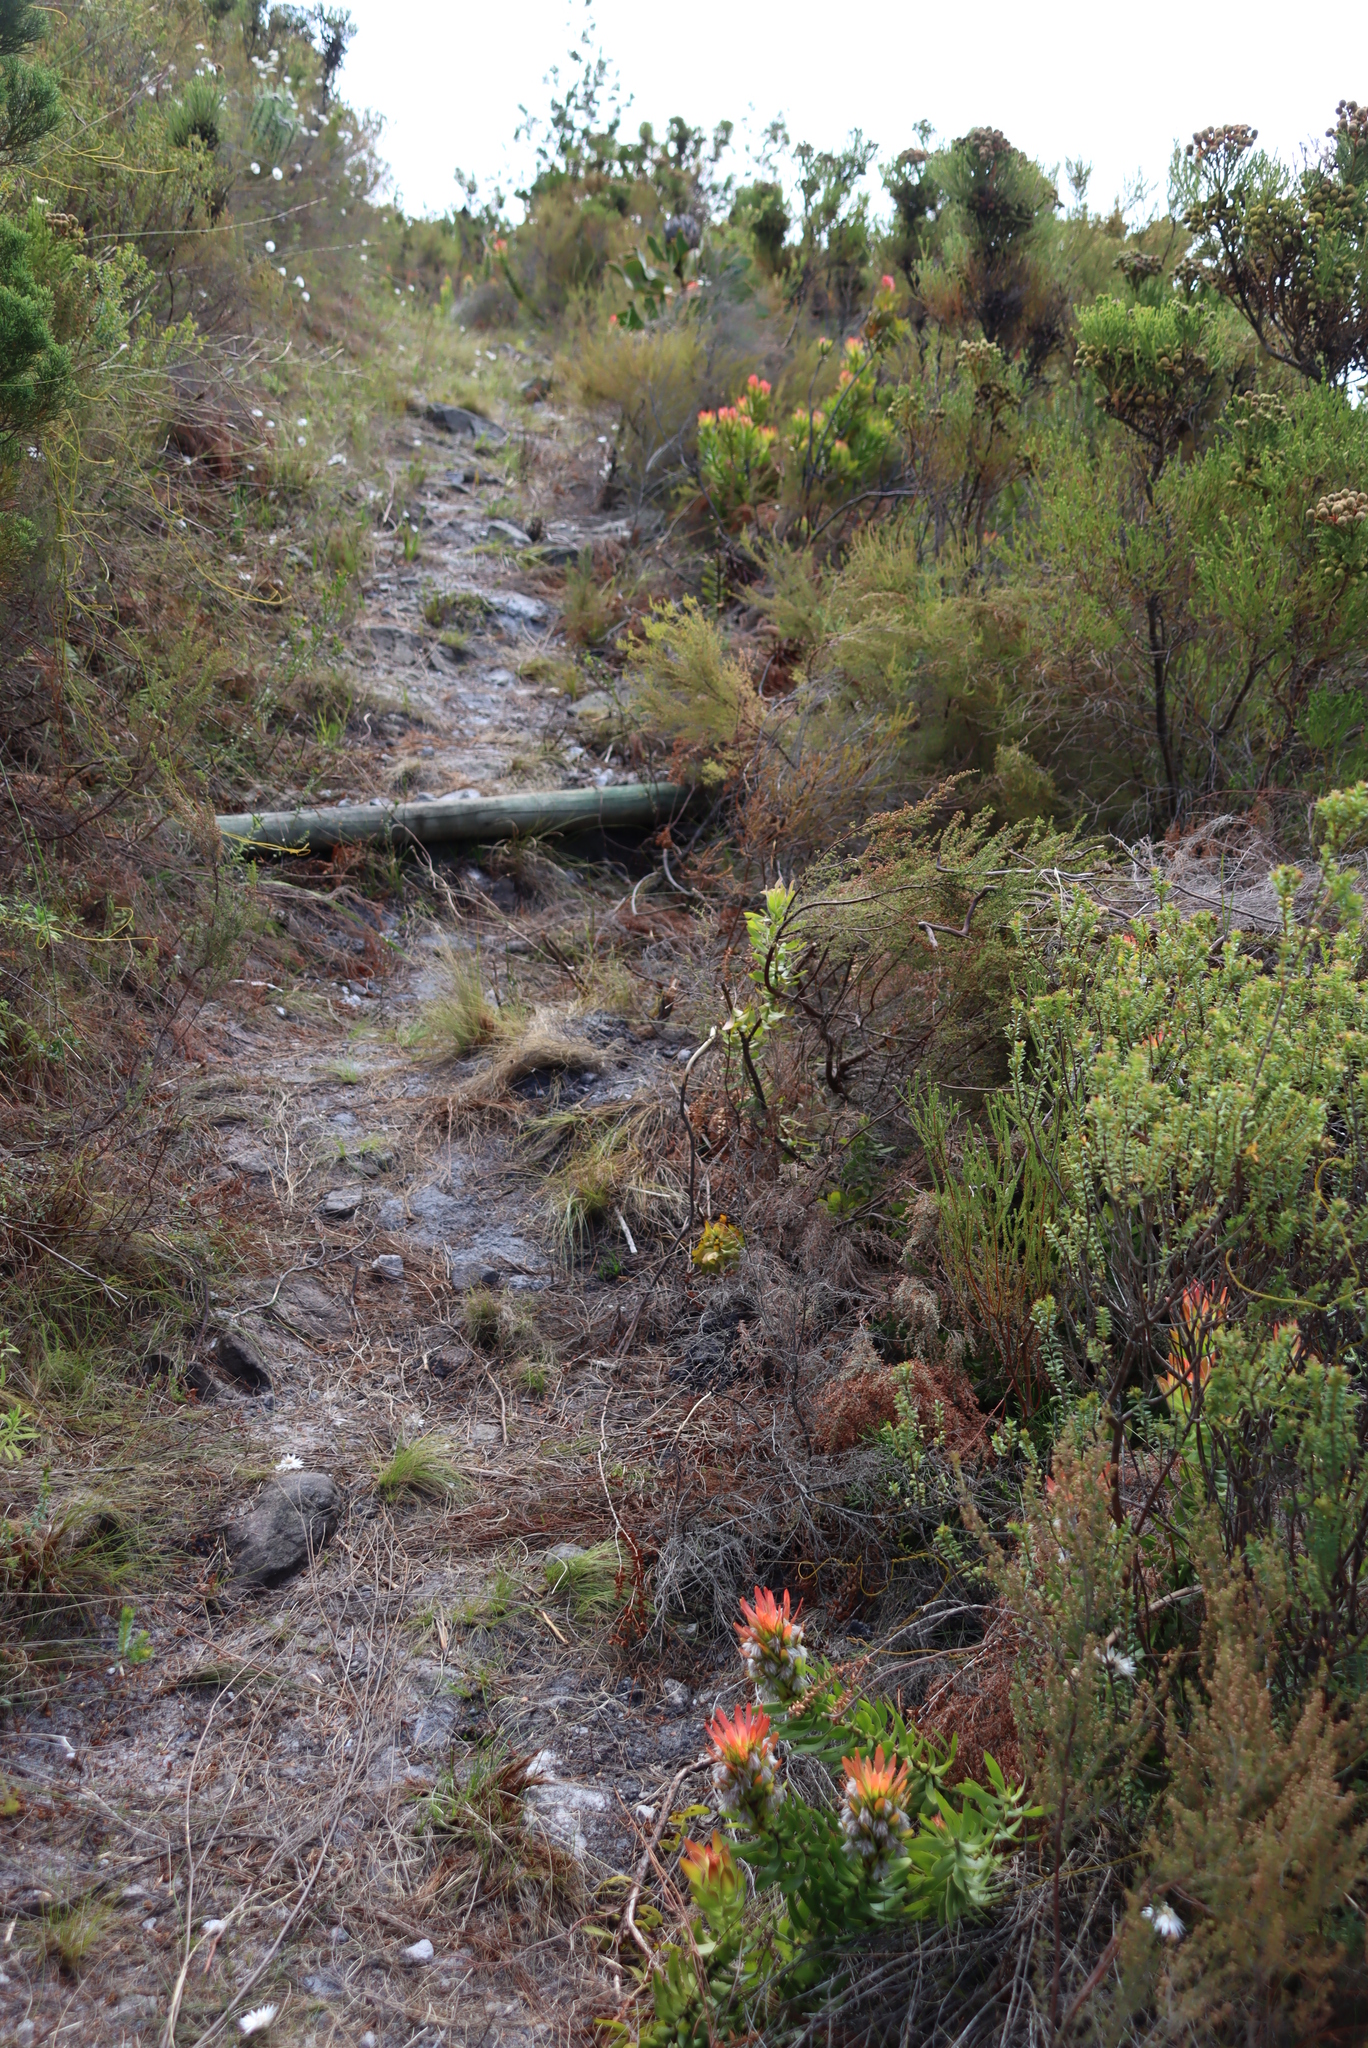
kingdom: Plantae
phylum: Tracheophyta
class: Magnoliopsida
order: Proteales
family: Proteaceae
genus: Mimetes
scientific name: Mimetes cucullatus
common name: Common pagoda
